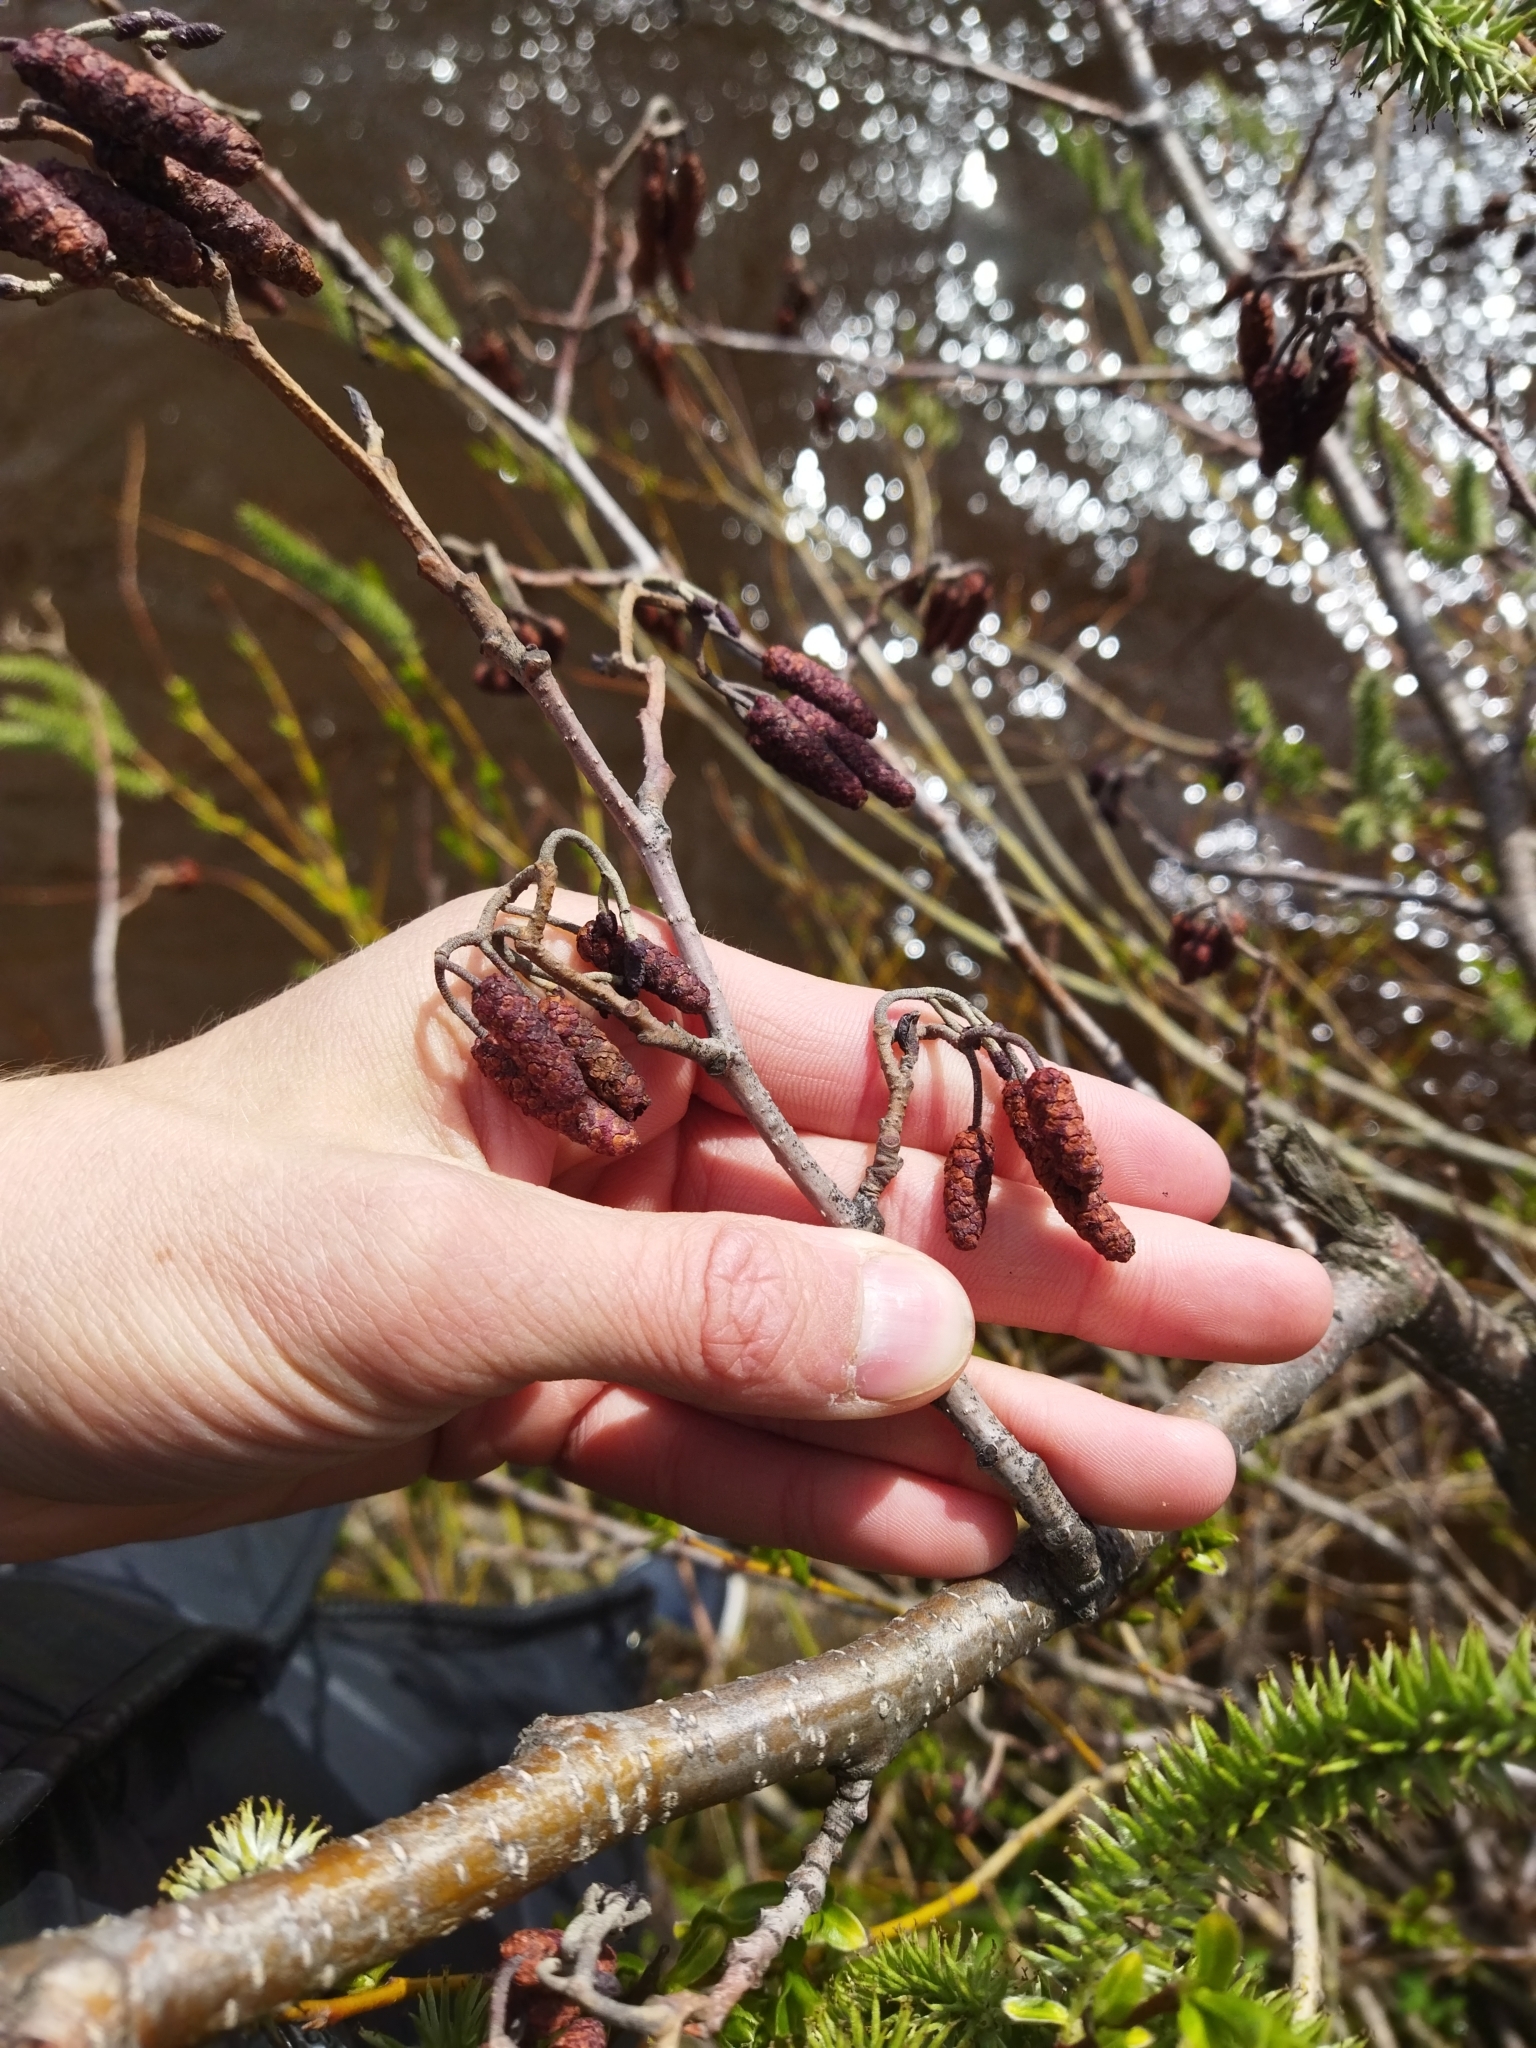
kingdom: Plantae
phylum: Tracheophyta
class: Magnoliopsida
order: Fagales
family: Betulaceae
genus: Alnus
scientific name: Alnus incana
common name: Grey alder
